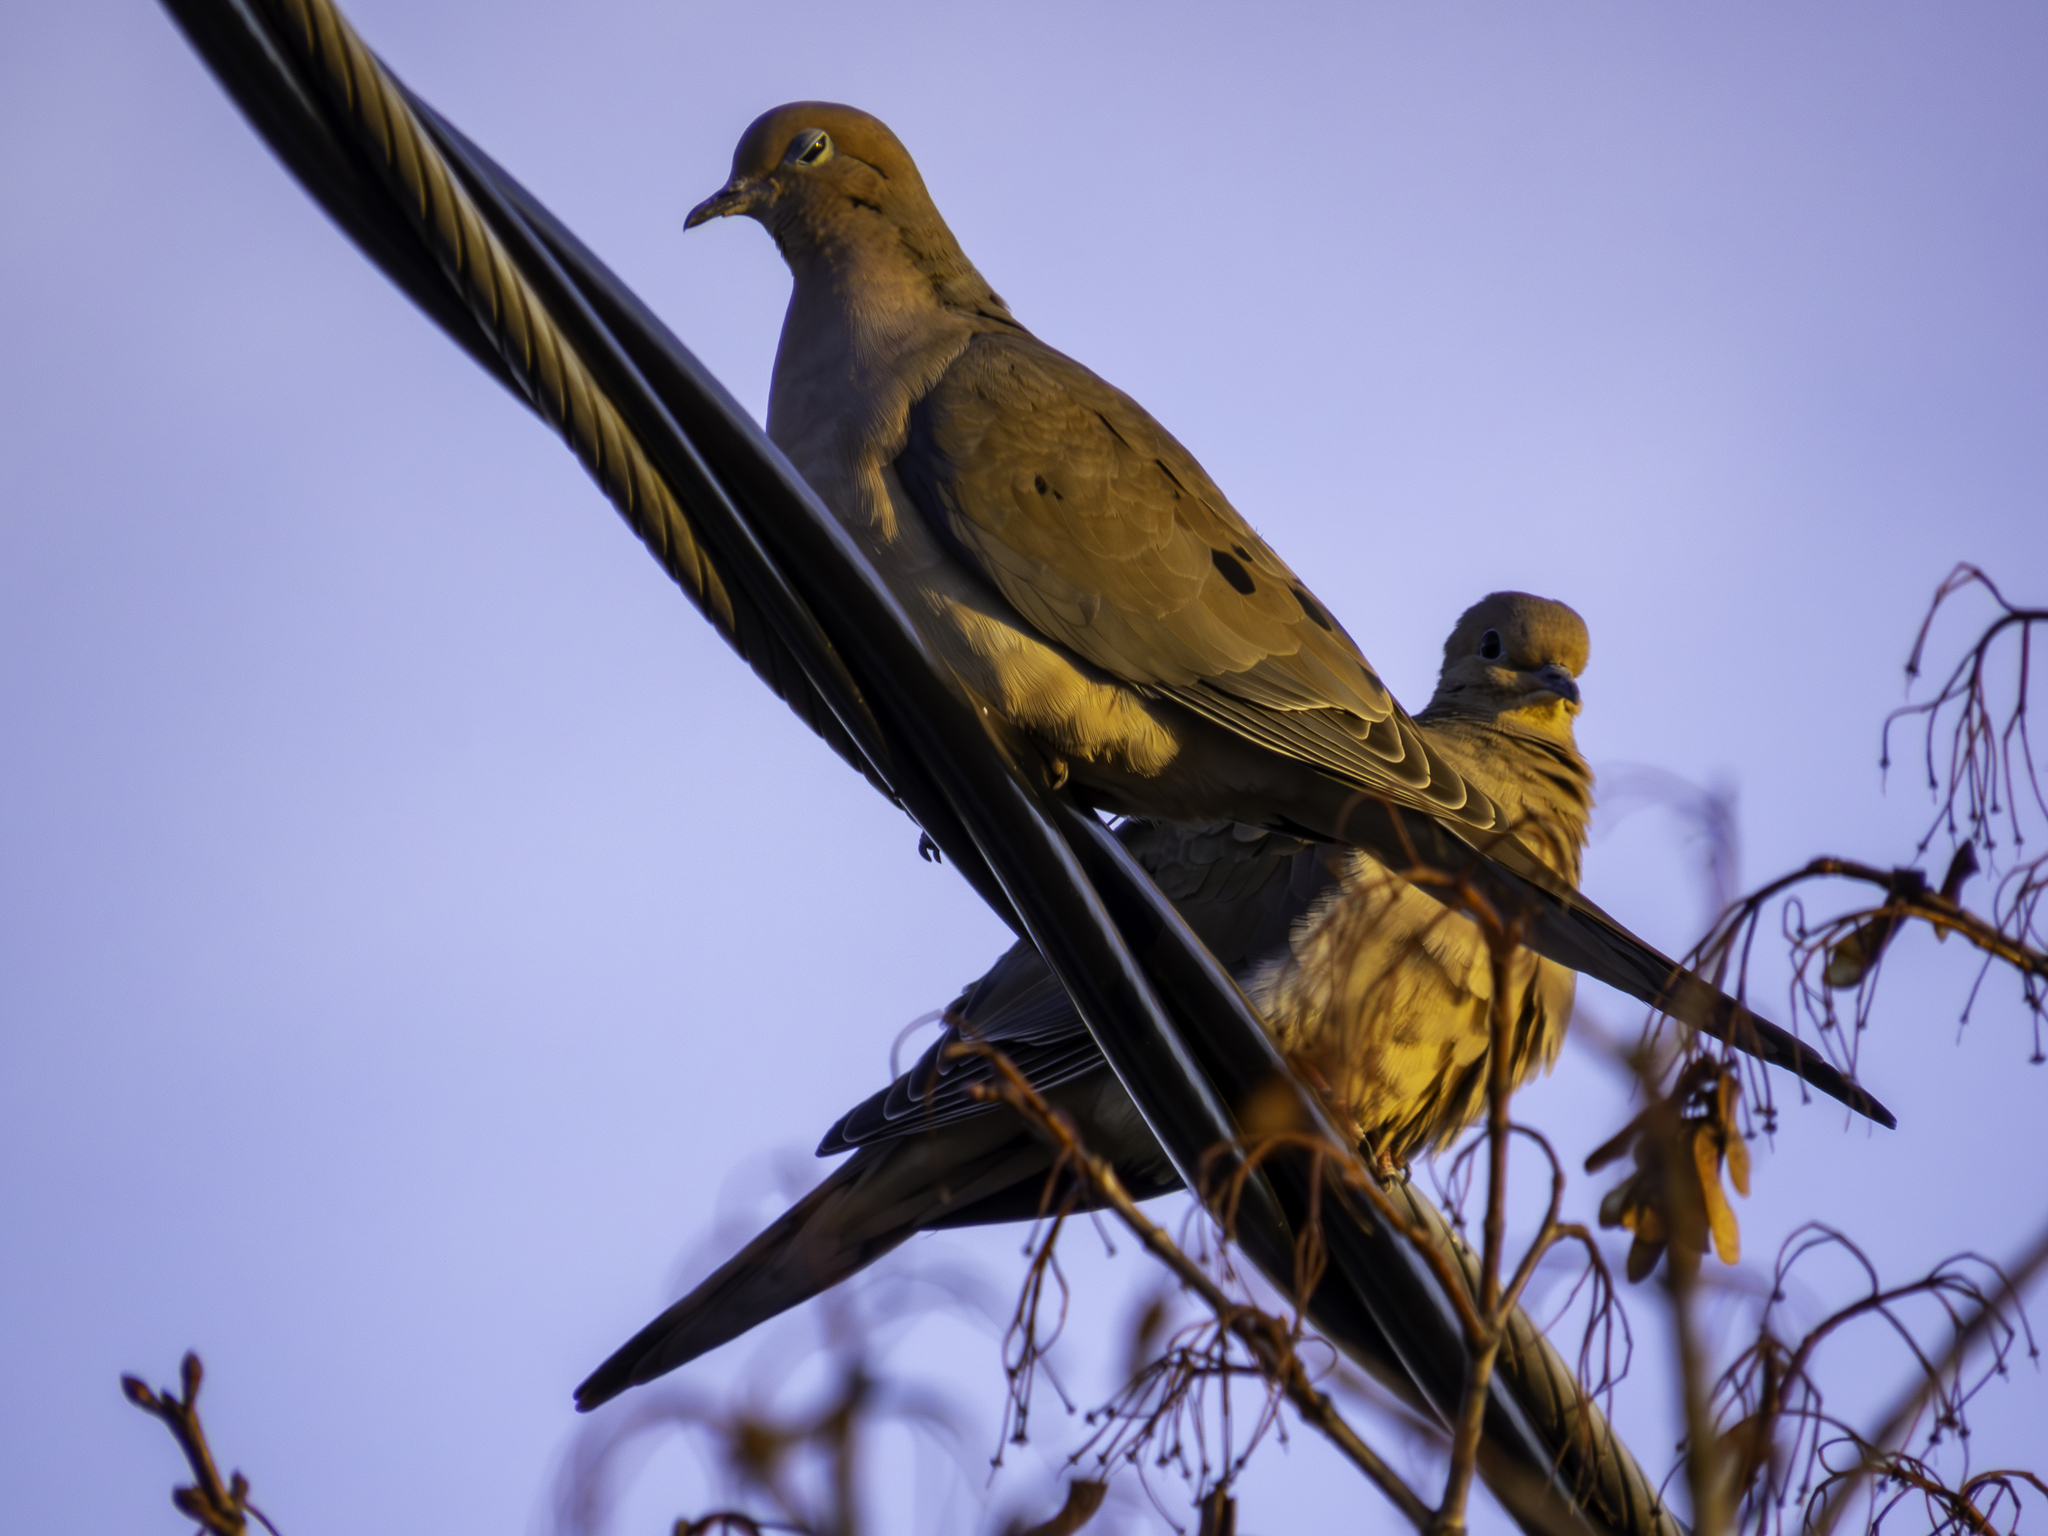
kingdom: Animalia
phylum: Chordata
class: Aves
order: Columbiformes
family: Columbidae
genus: Zenaida
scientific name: Zenaida macroura
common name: Mourning dove
